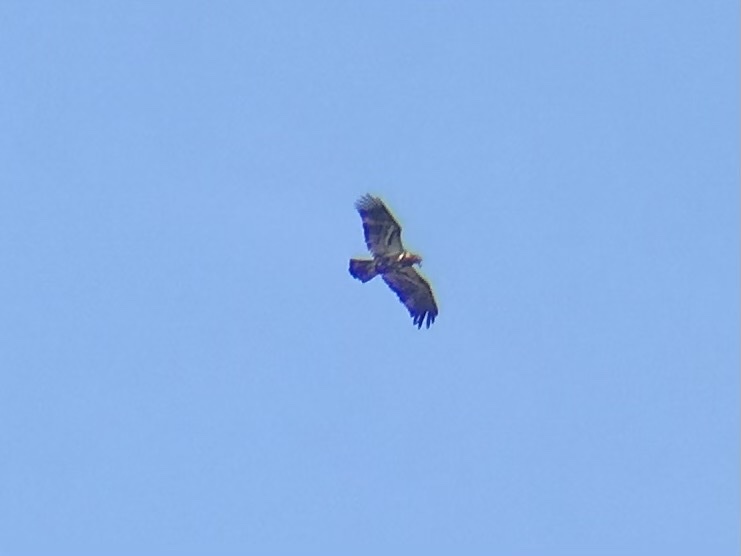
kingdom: Animalia
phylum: Chordata
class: Aves
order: Accipitriformes
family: Accipitridae
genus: Haliaeetus
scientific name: Haliaeetus leucocephalus
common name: Bald eagle
